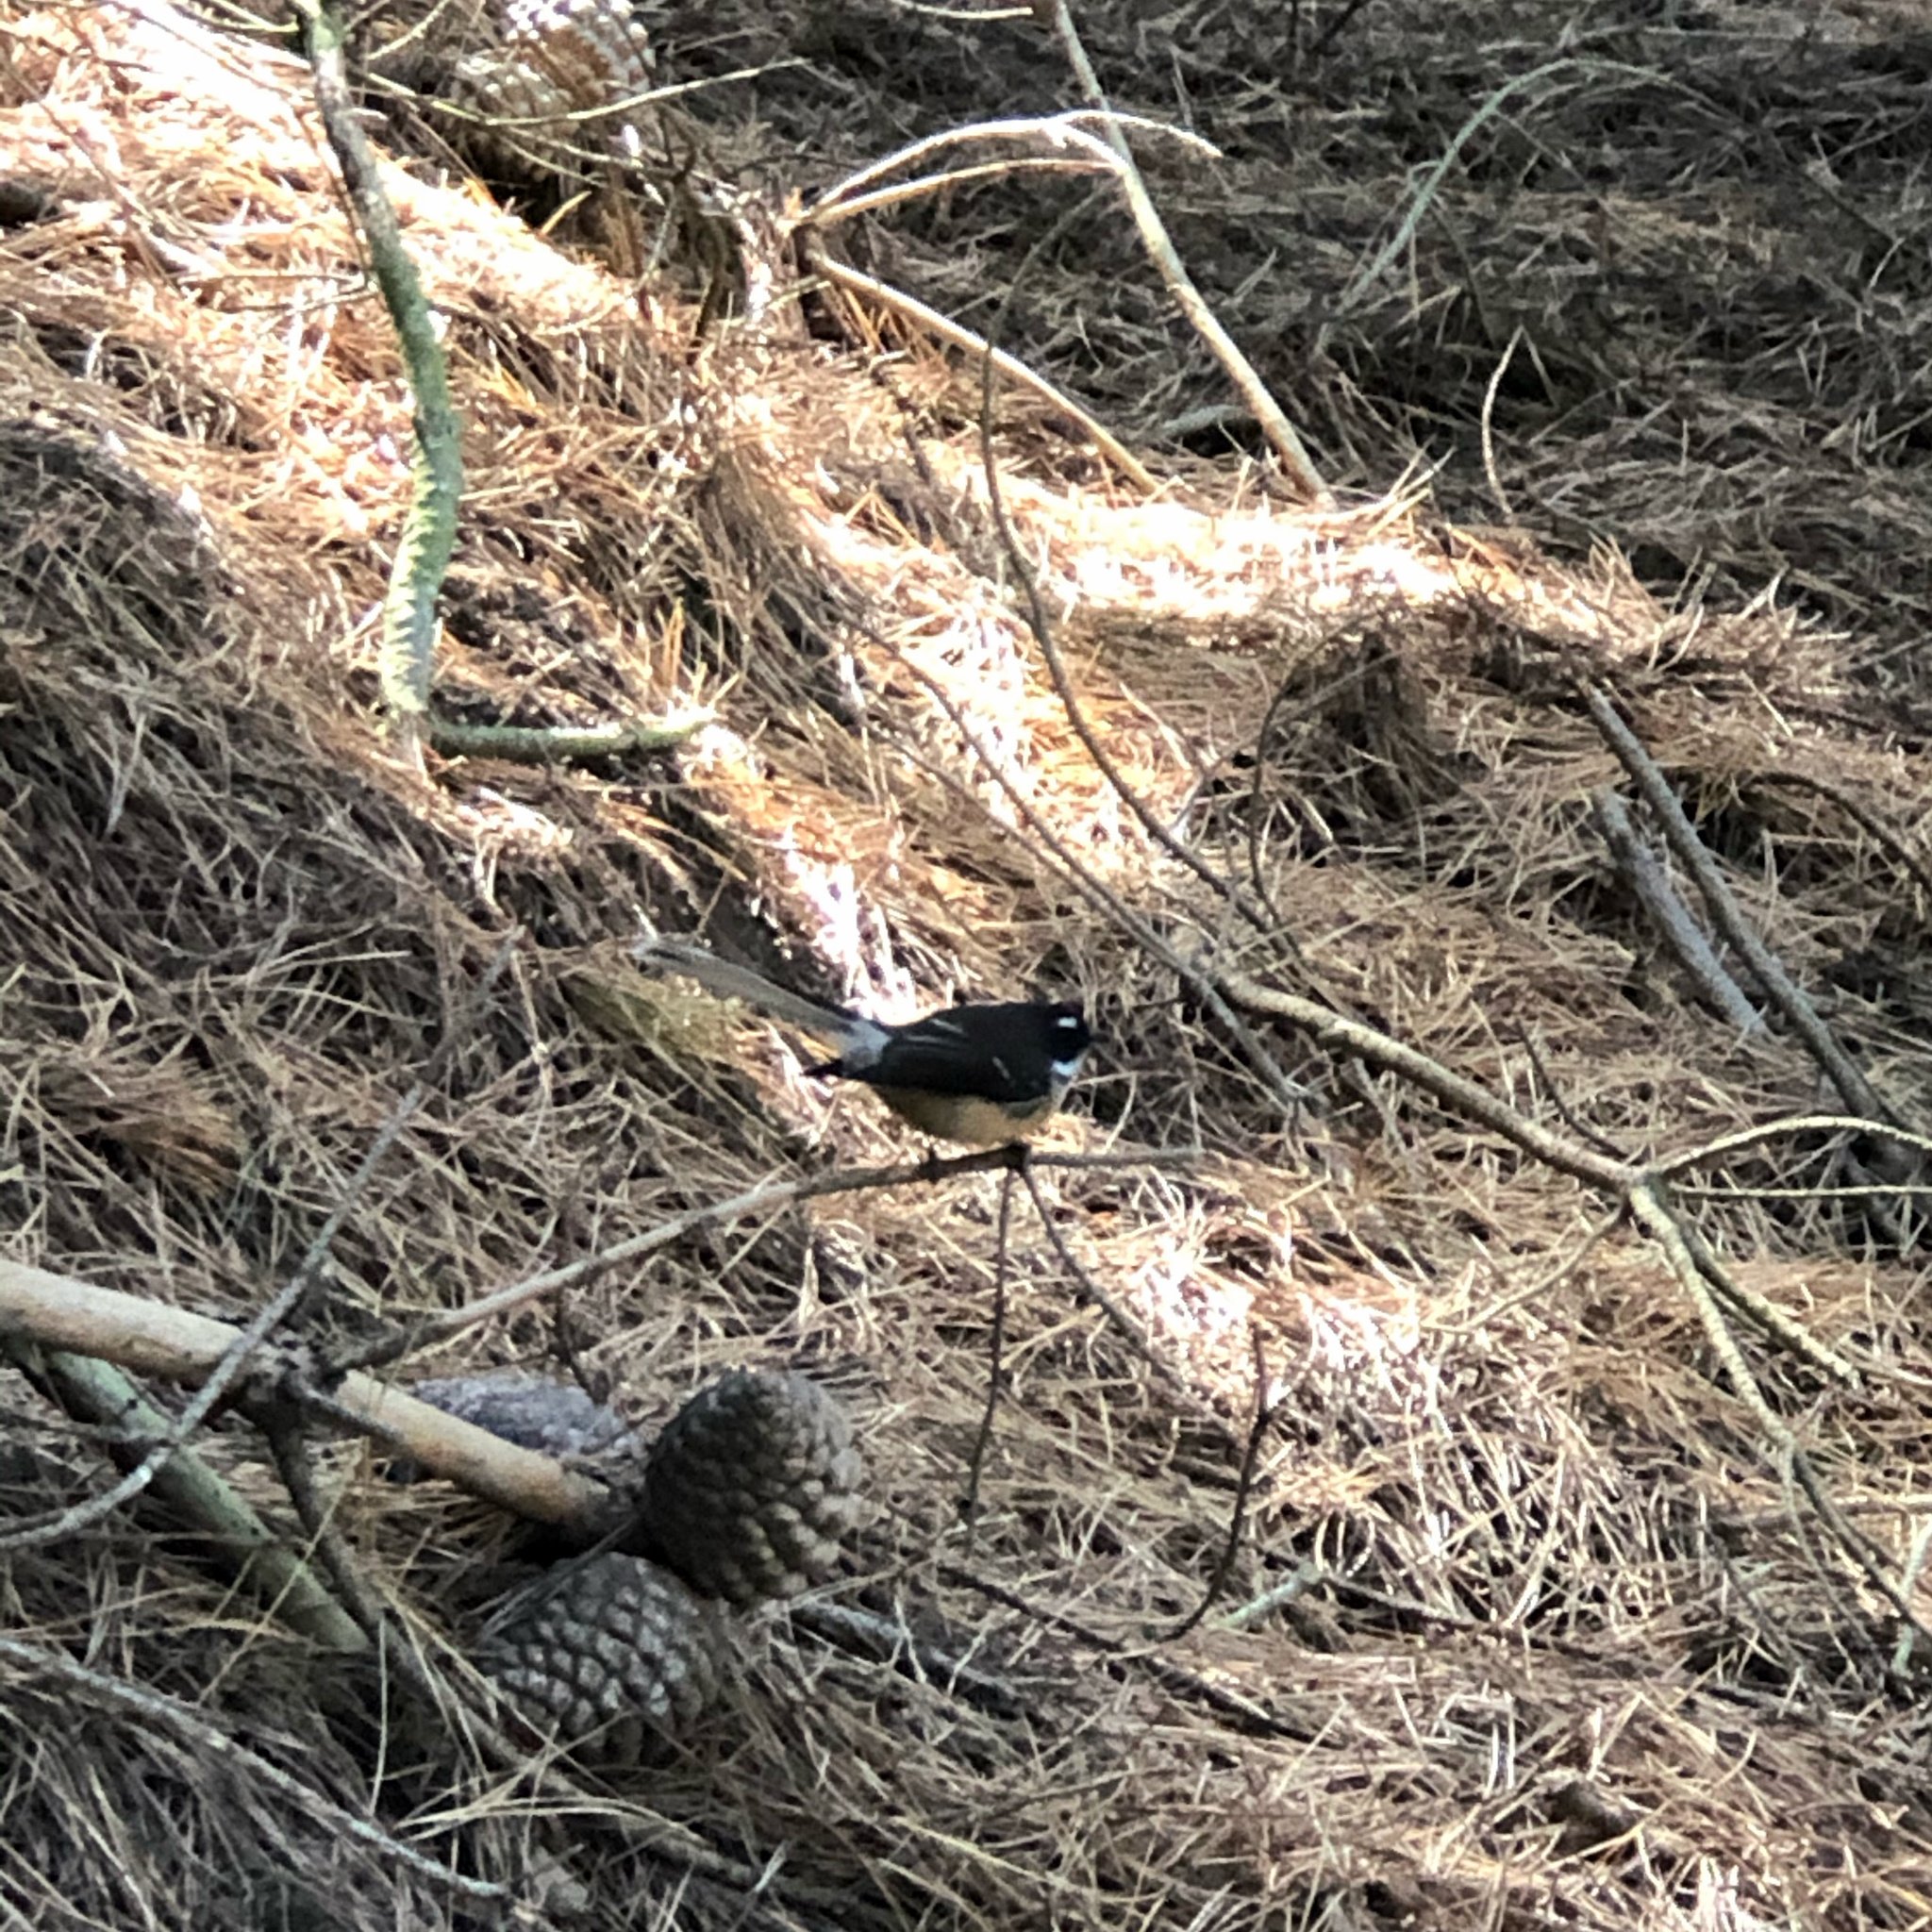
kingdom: Animalia
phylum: Chordata
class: Aves
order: Passeriformes
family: Rhipiduridae
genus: Rhipidura
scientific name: Rhipidura fuliginosa
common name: New zealand fantail
